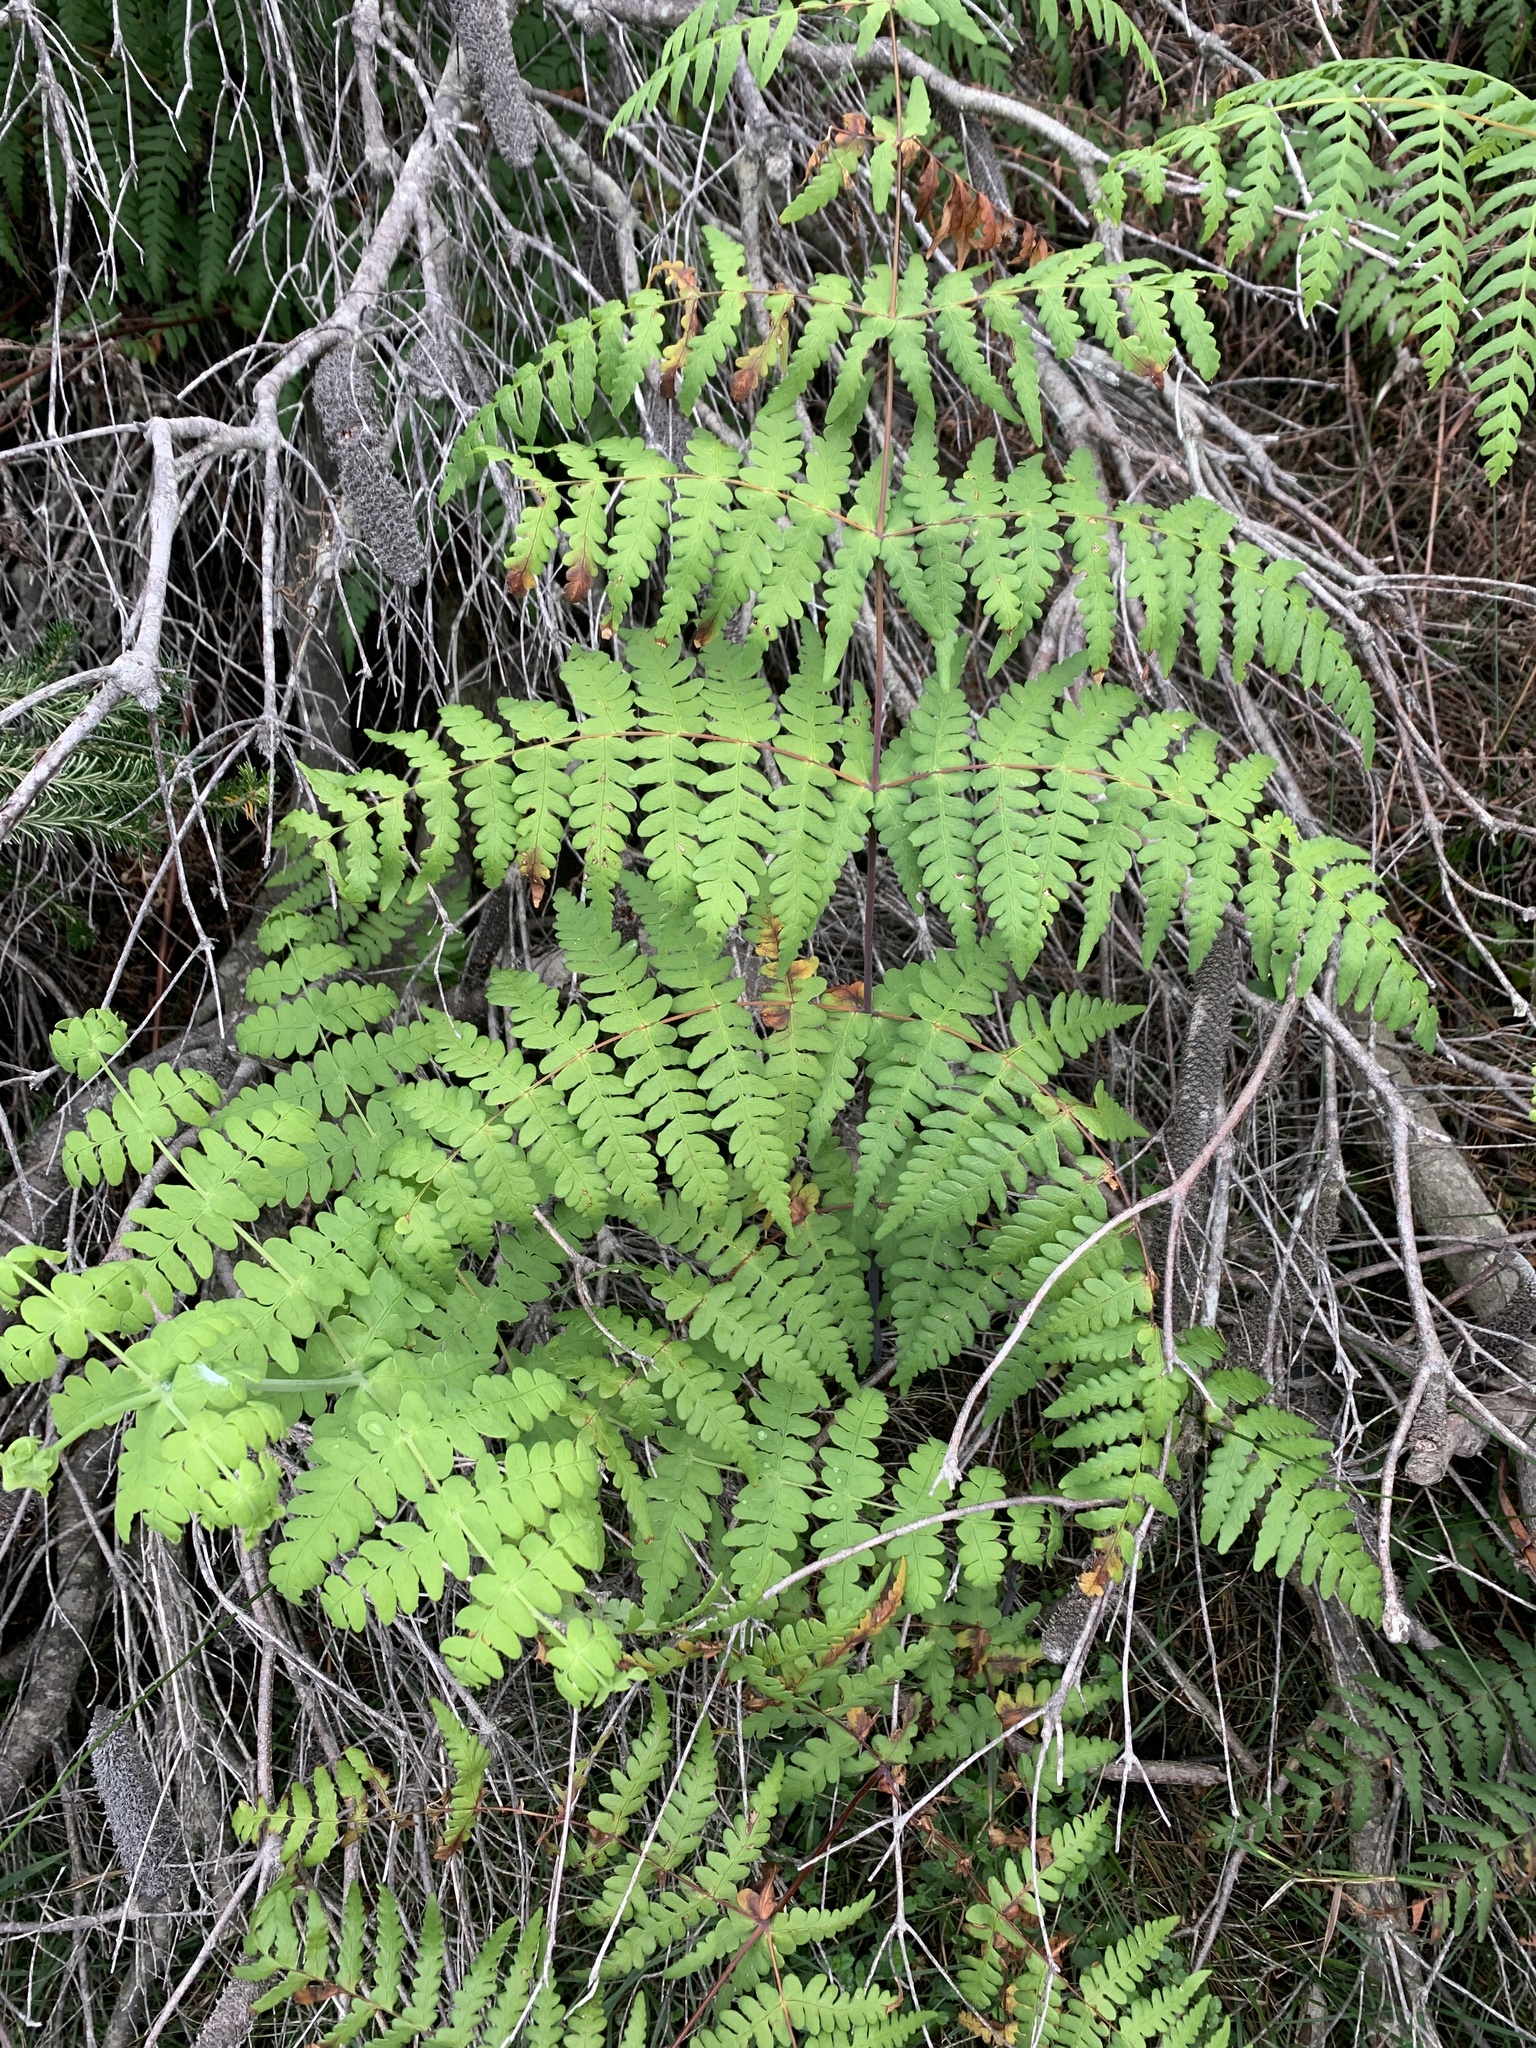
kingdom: Plantae
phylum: Tracheophyta
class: Polypodiopsida
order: Polypodiales
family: Dennstaedtiaceae
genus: Histiopteris
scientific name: Histiopteris incisa
